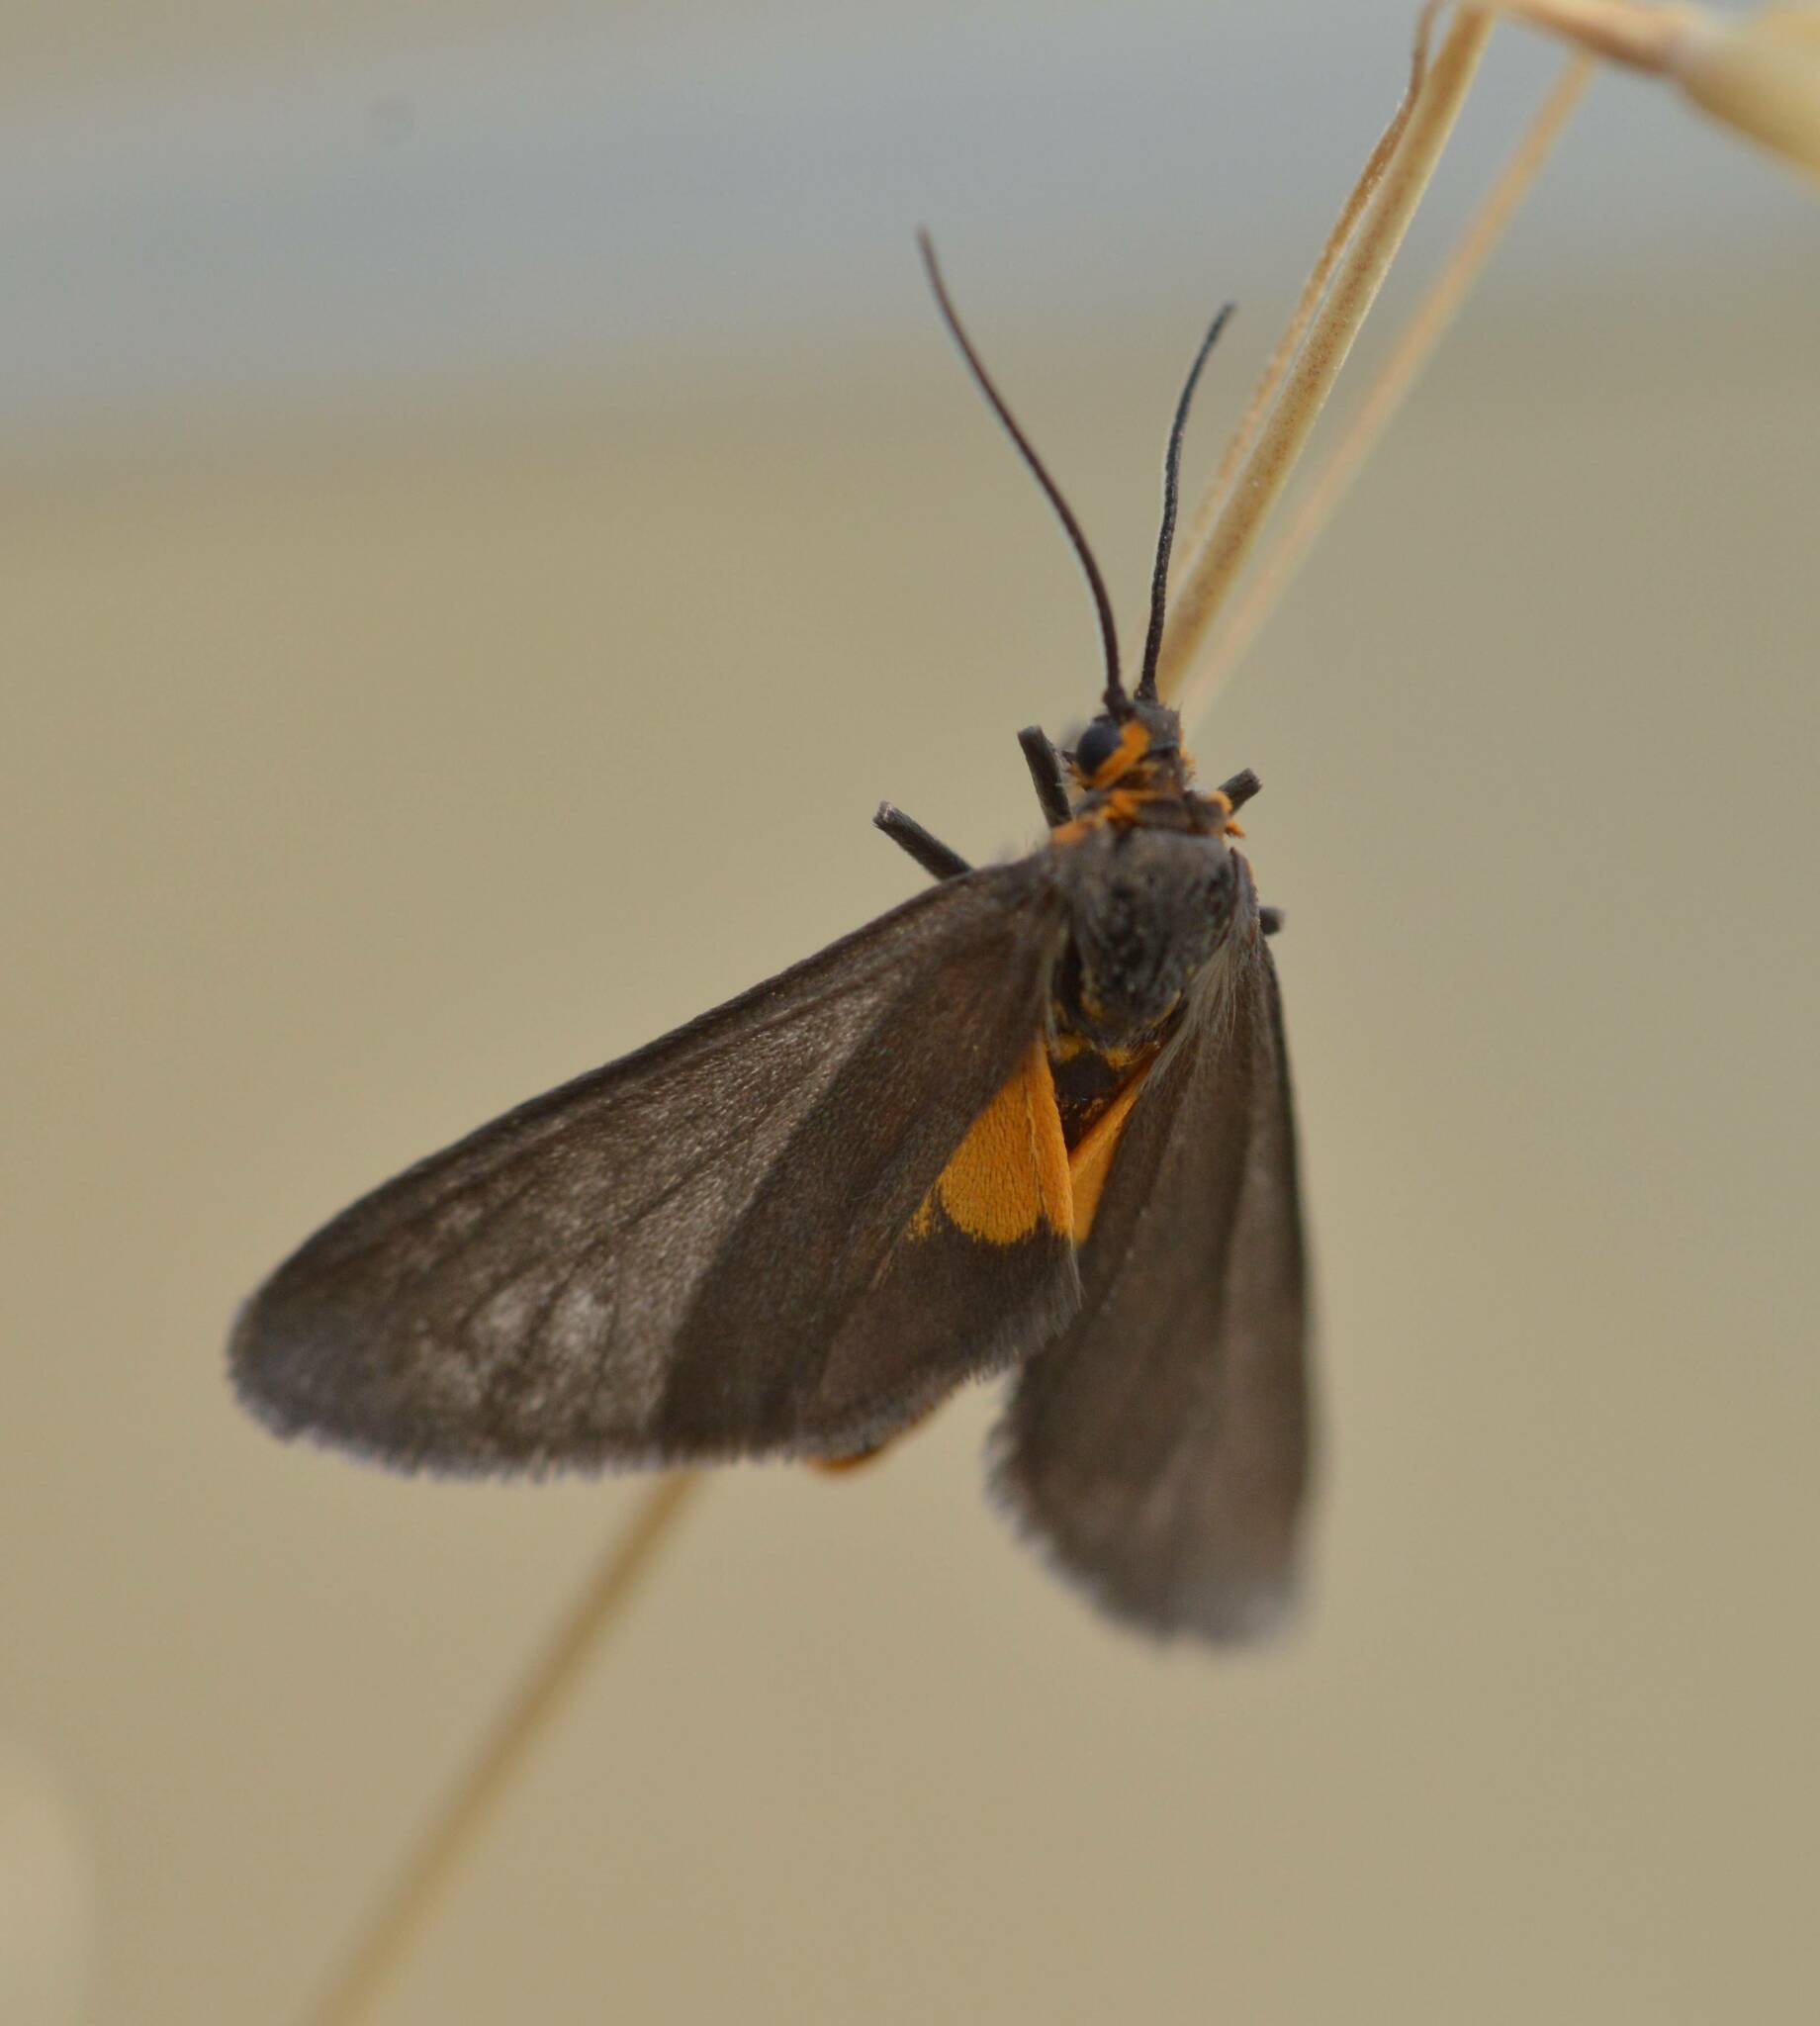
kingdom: Animalia
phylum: Arthropoda
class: Insecta
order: Lepidoptera
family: Erebidae
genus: Dysauxes
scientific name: Dysauxes punctata
